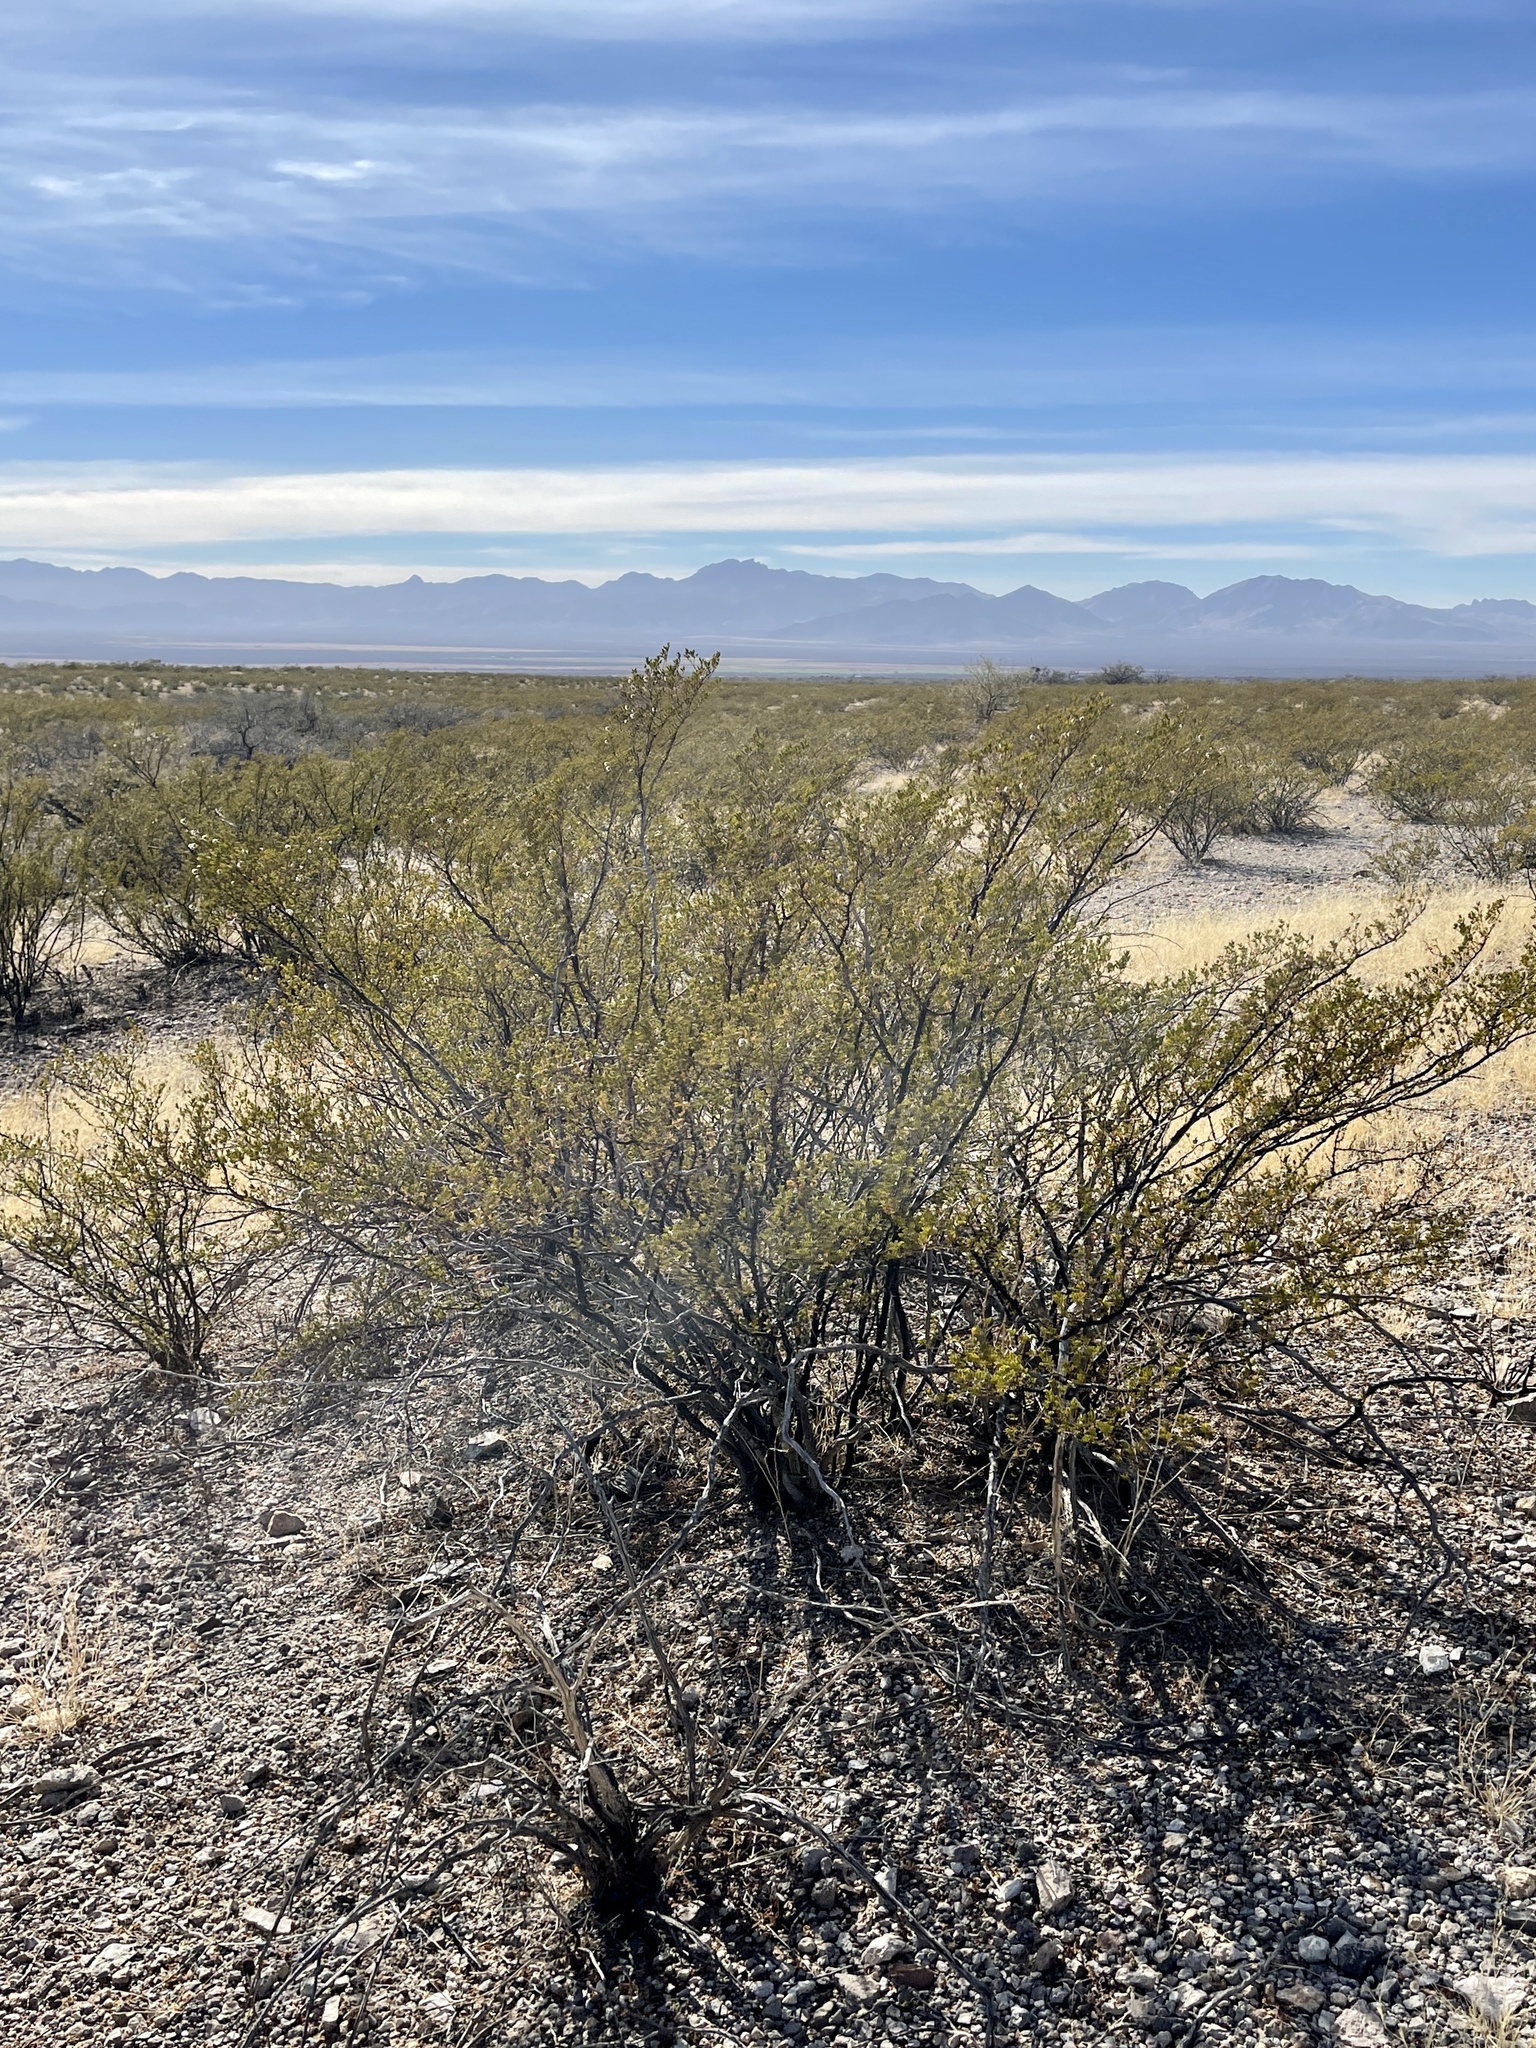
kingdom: Plantae
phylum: Tracheophyta
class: Magnoliopsida
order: Zygophyllales
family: Zygophyllaceae
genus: Larrea
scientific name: Larrea tridentata
